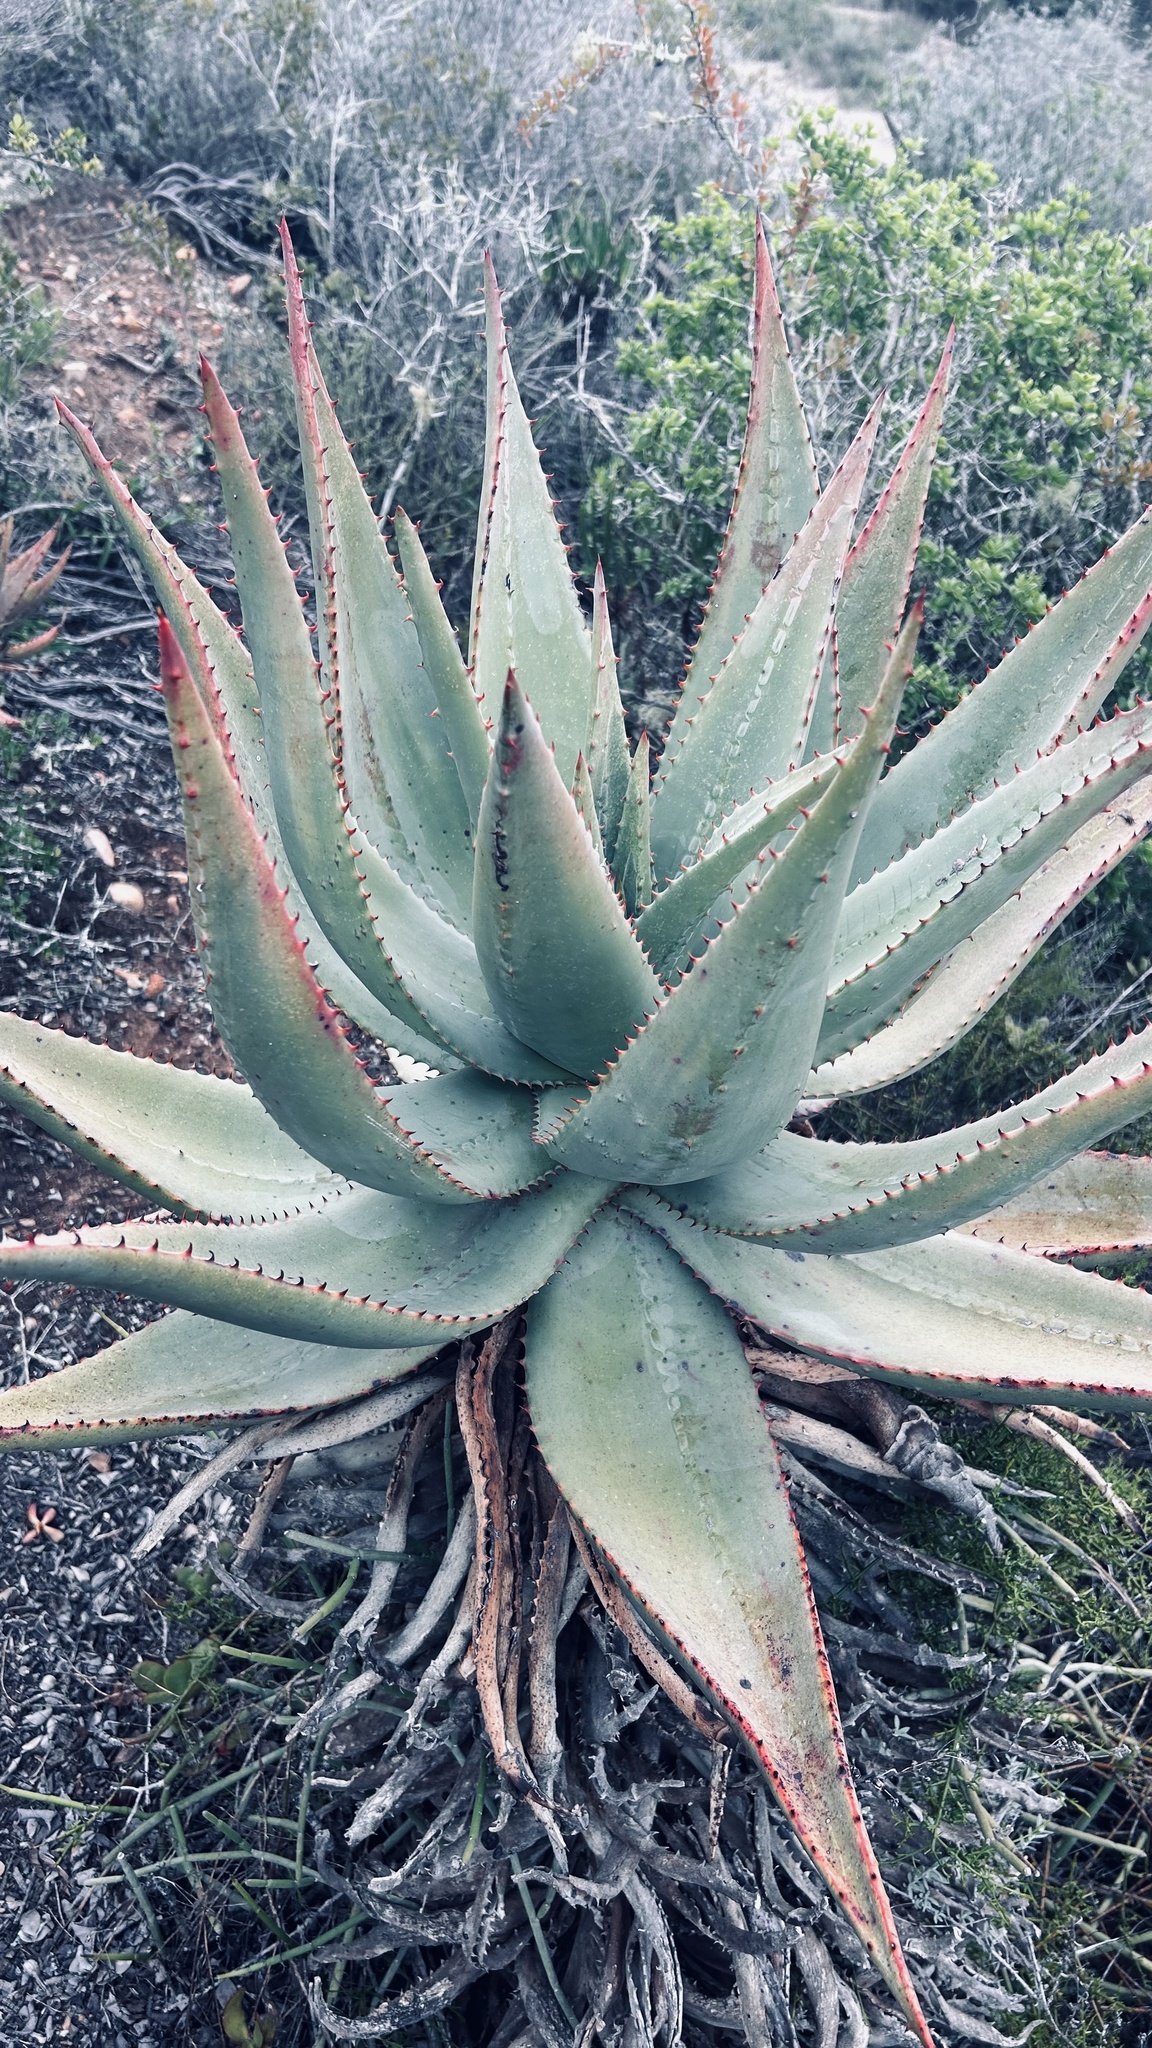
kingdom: Plantae
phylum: Tracheophyta
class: Liliopsida
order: Asparagales
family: Asphodelaceae
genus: Aloe
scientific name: Aloe ferox
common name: Bitter aloe
